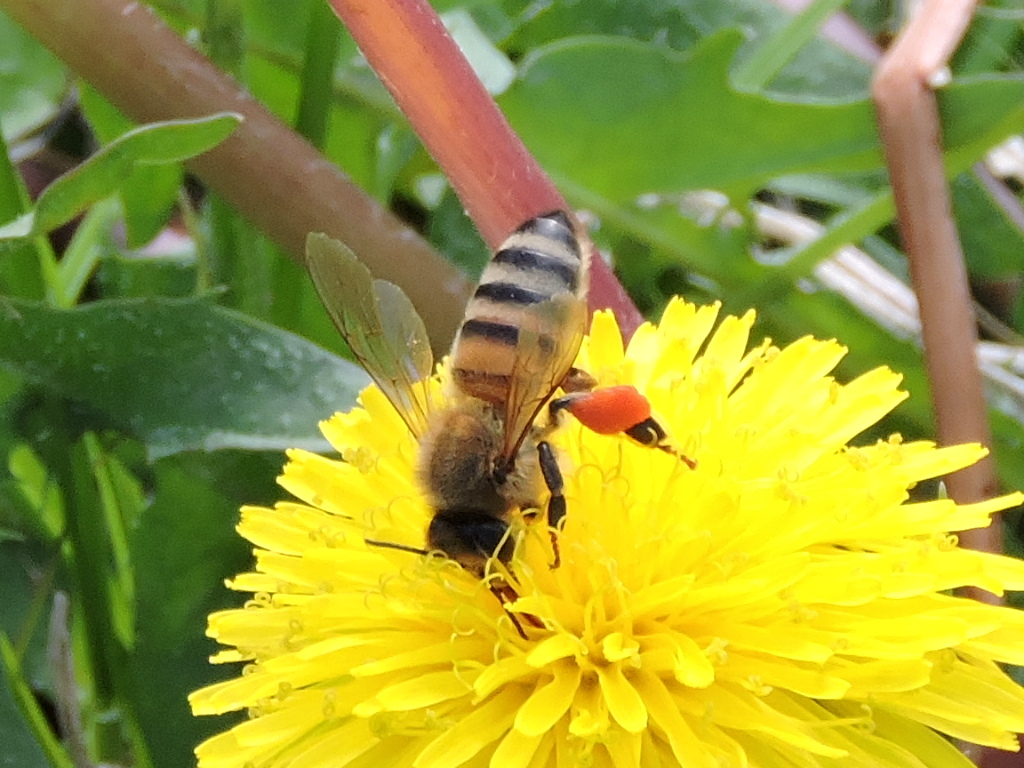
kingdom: Animalia
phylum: Arthropoda
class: Insecta
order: Hymenoptera
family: Apidae
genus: Apis
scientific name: Apis mellifera
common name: Honey bee
